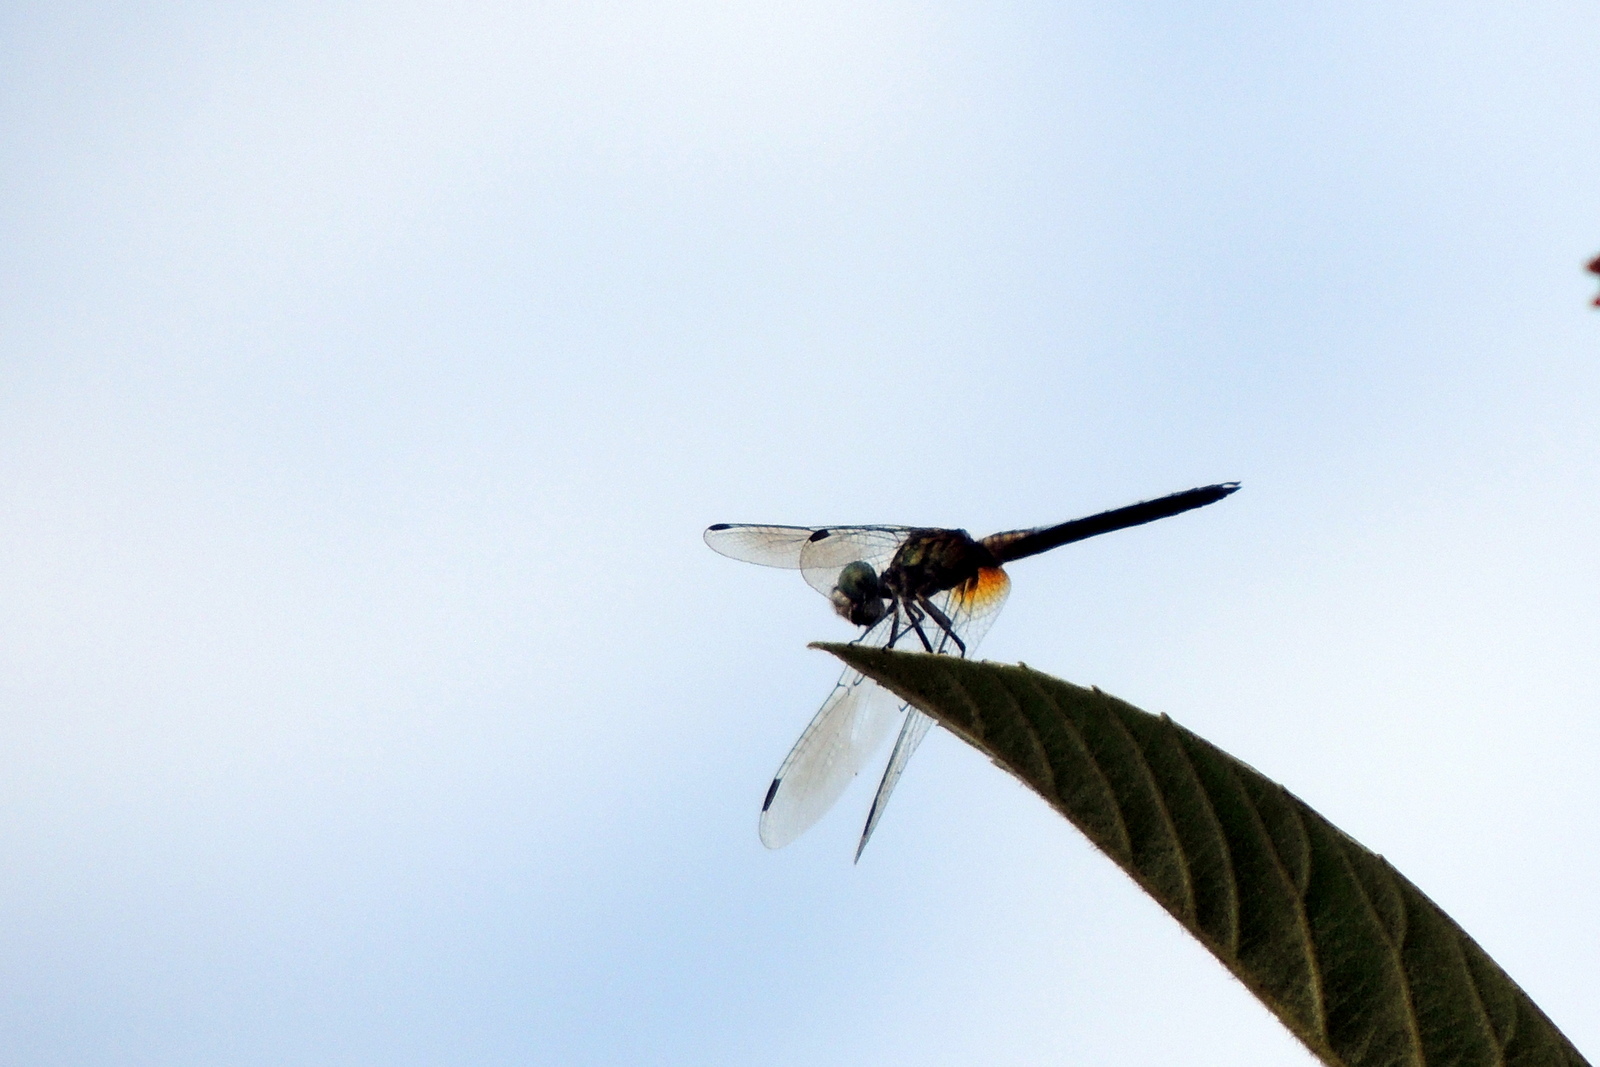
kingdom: Animalia
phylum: Arthropoda
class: Insecta
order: Odonata
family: Libellulidae
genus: Pachydiplax
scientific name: Pachydiplax longipennis
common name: Blue dasher
